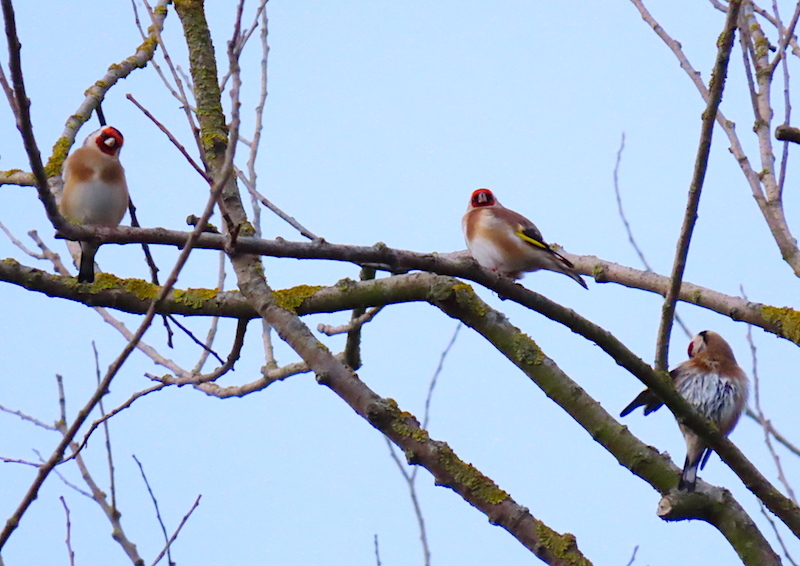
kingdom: Animalia
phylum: Chordata
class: Aves
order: Passeriformes
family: Fringillidae
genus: Carduelis
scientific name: Carduelis carduelis
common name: European goldfinch
